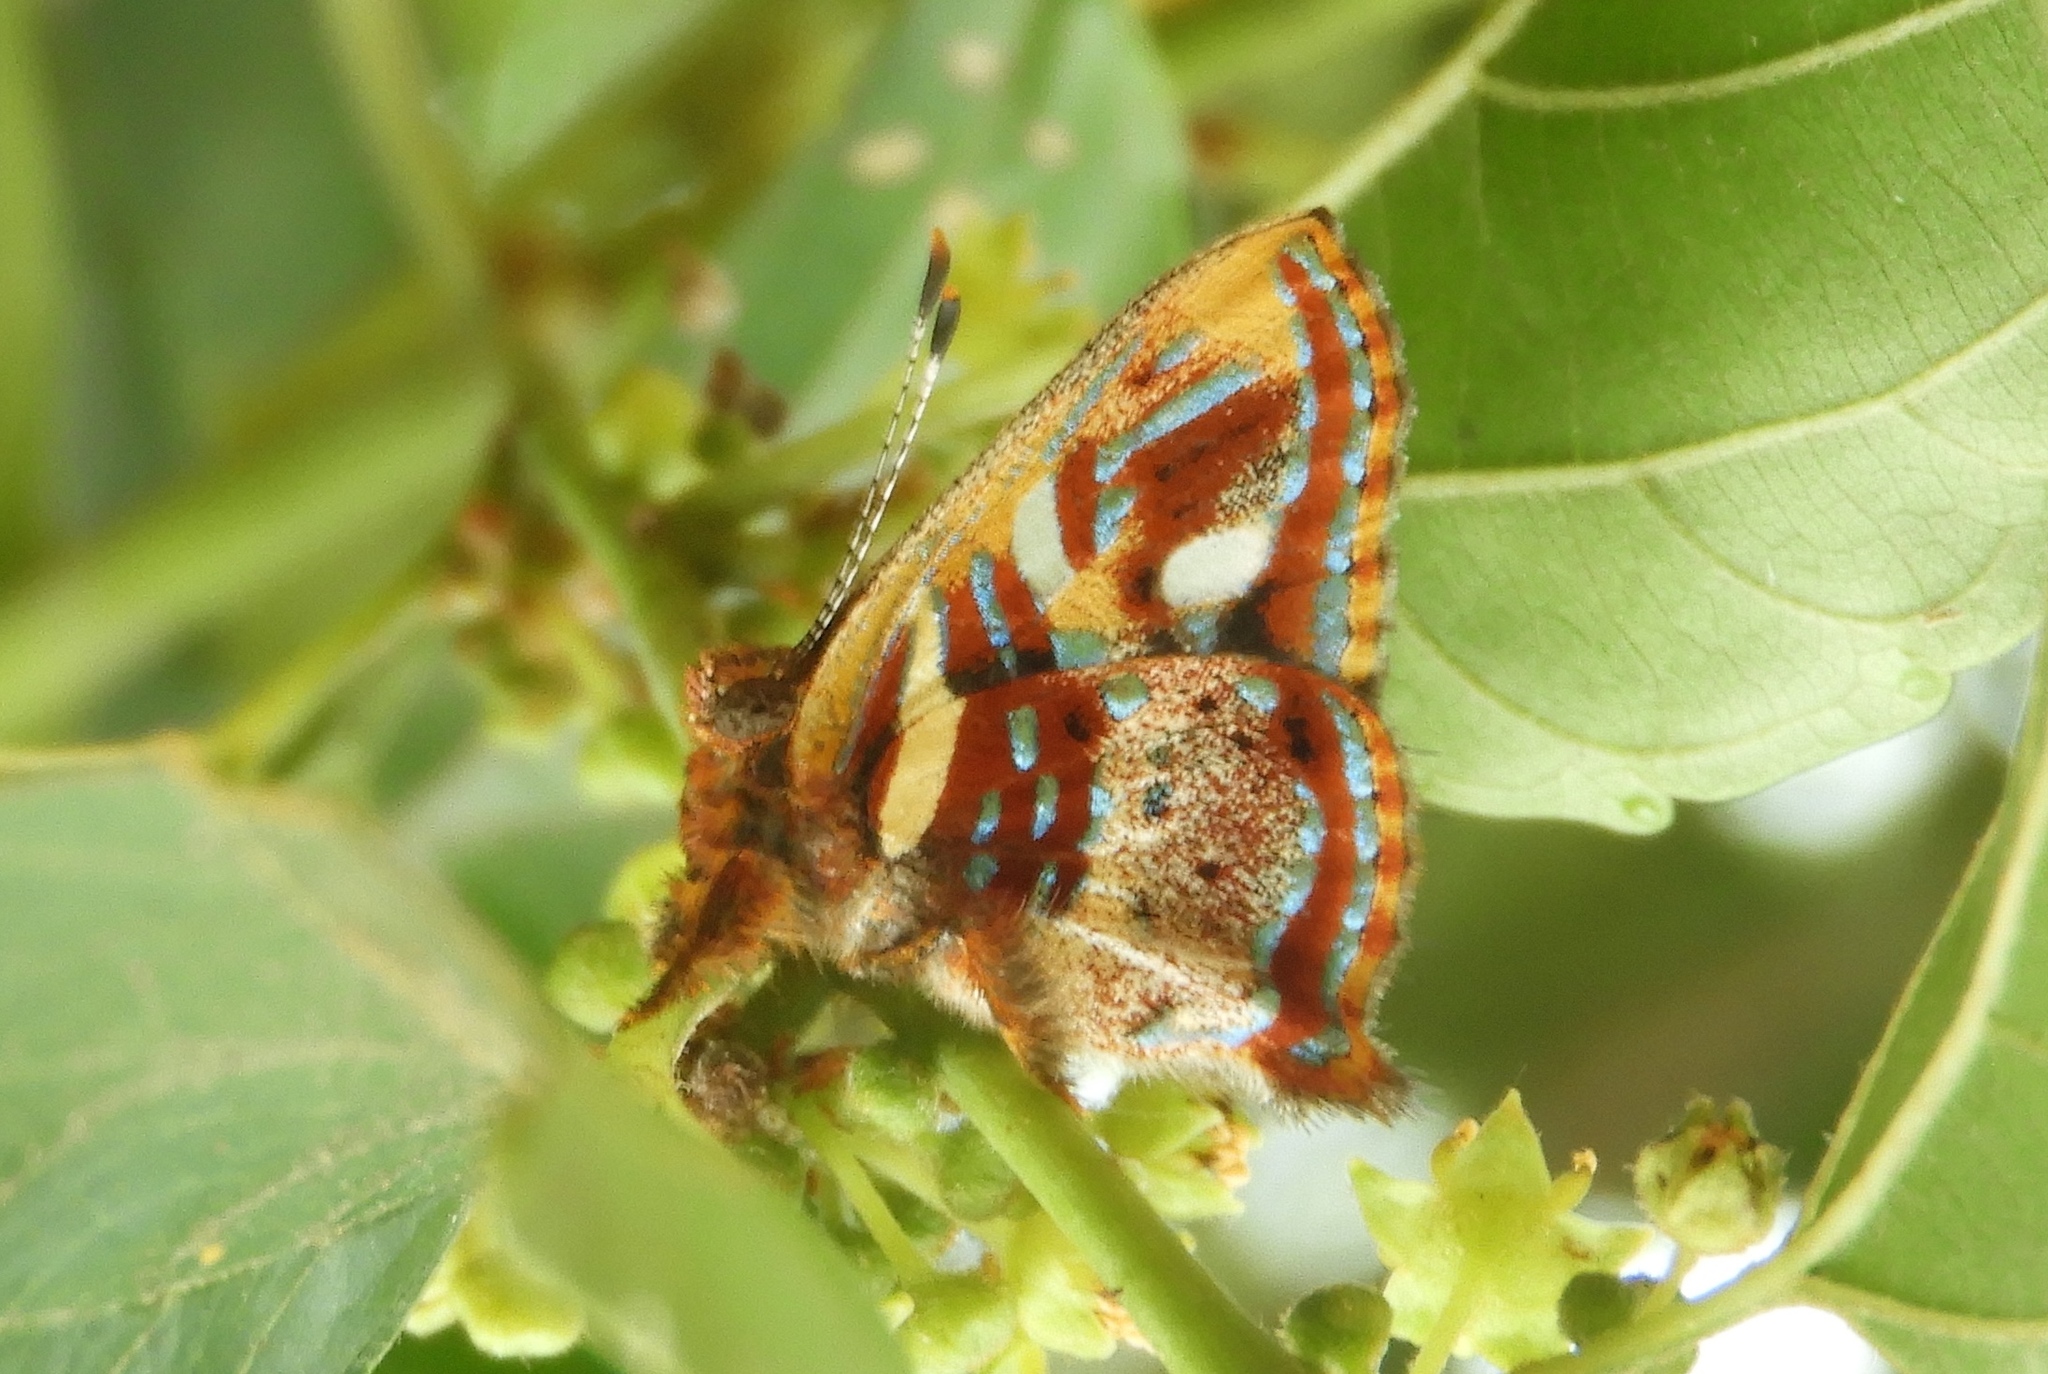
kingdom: Animalia
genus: Anteros
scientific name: Anteros carausius
